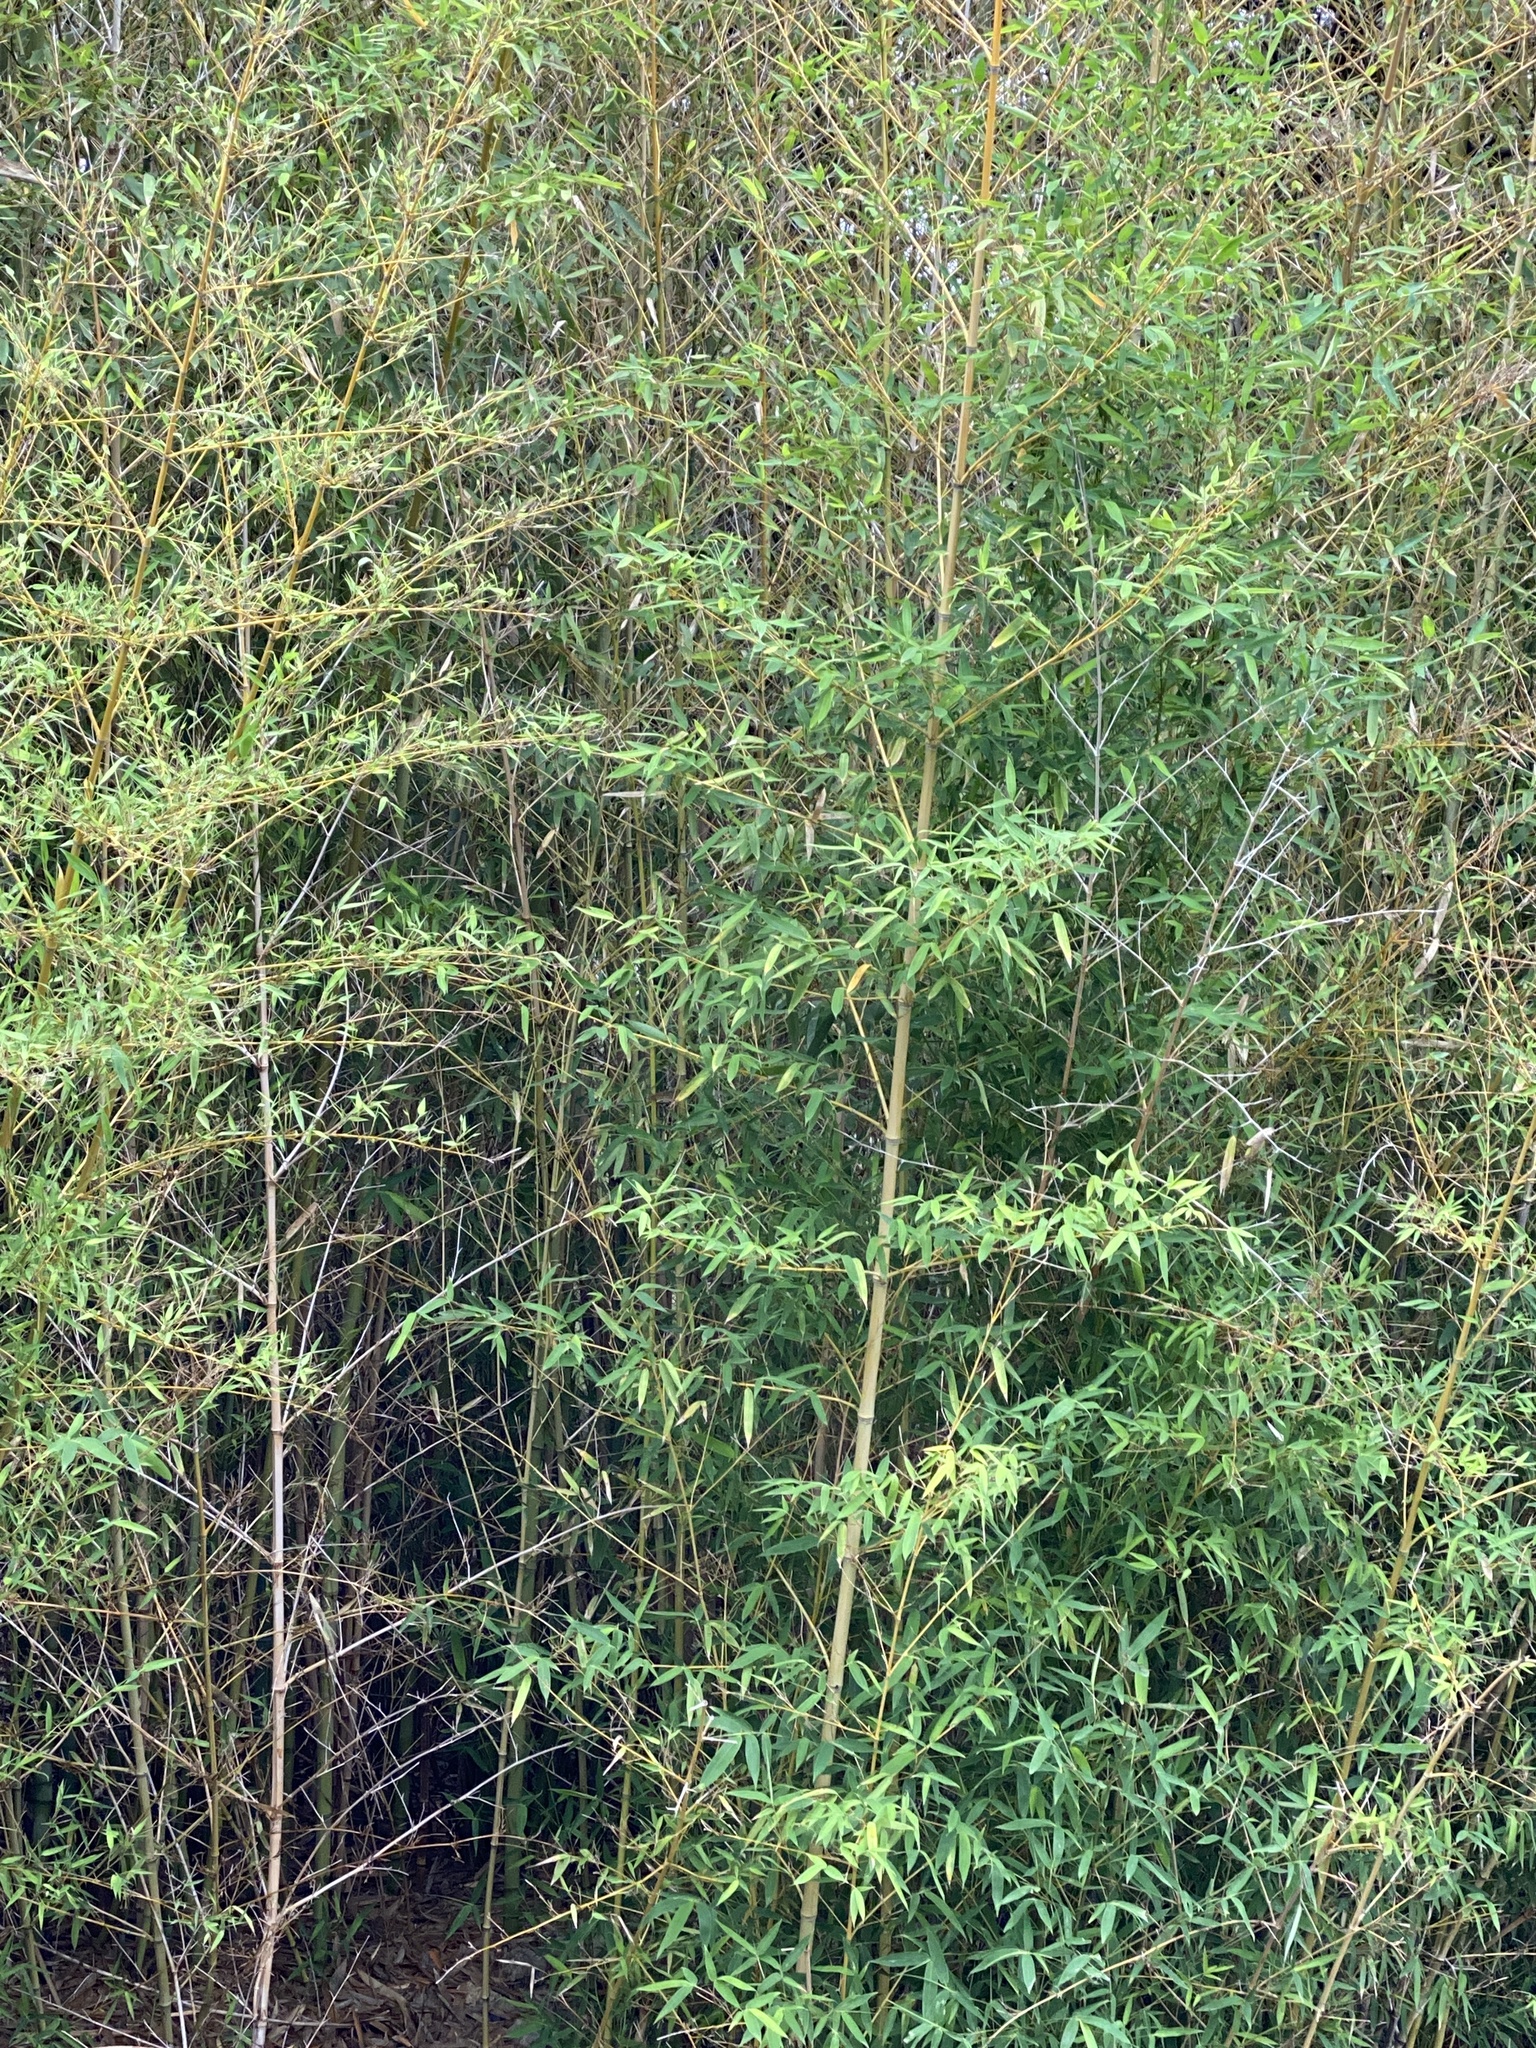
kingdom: Plantae
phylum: Tracheophyta
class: Liliopsida
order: Poales
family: Poaceae
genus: Phyllostachys
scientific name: Phyllostachys aurea
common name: Golden bamboo
